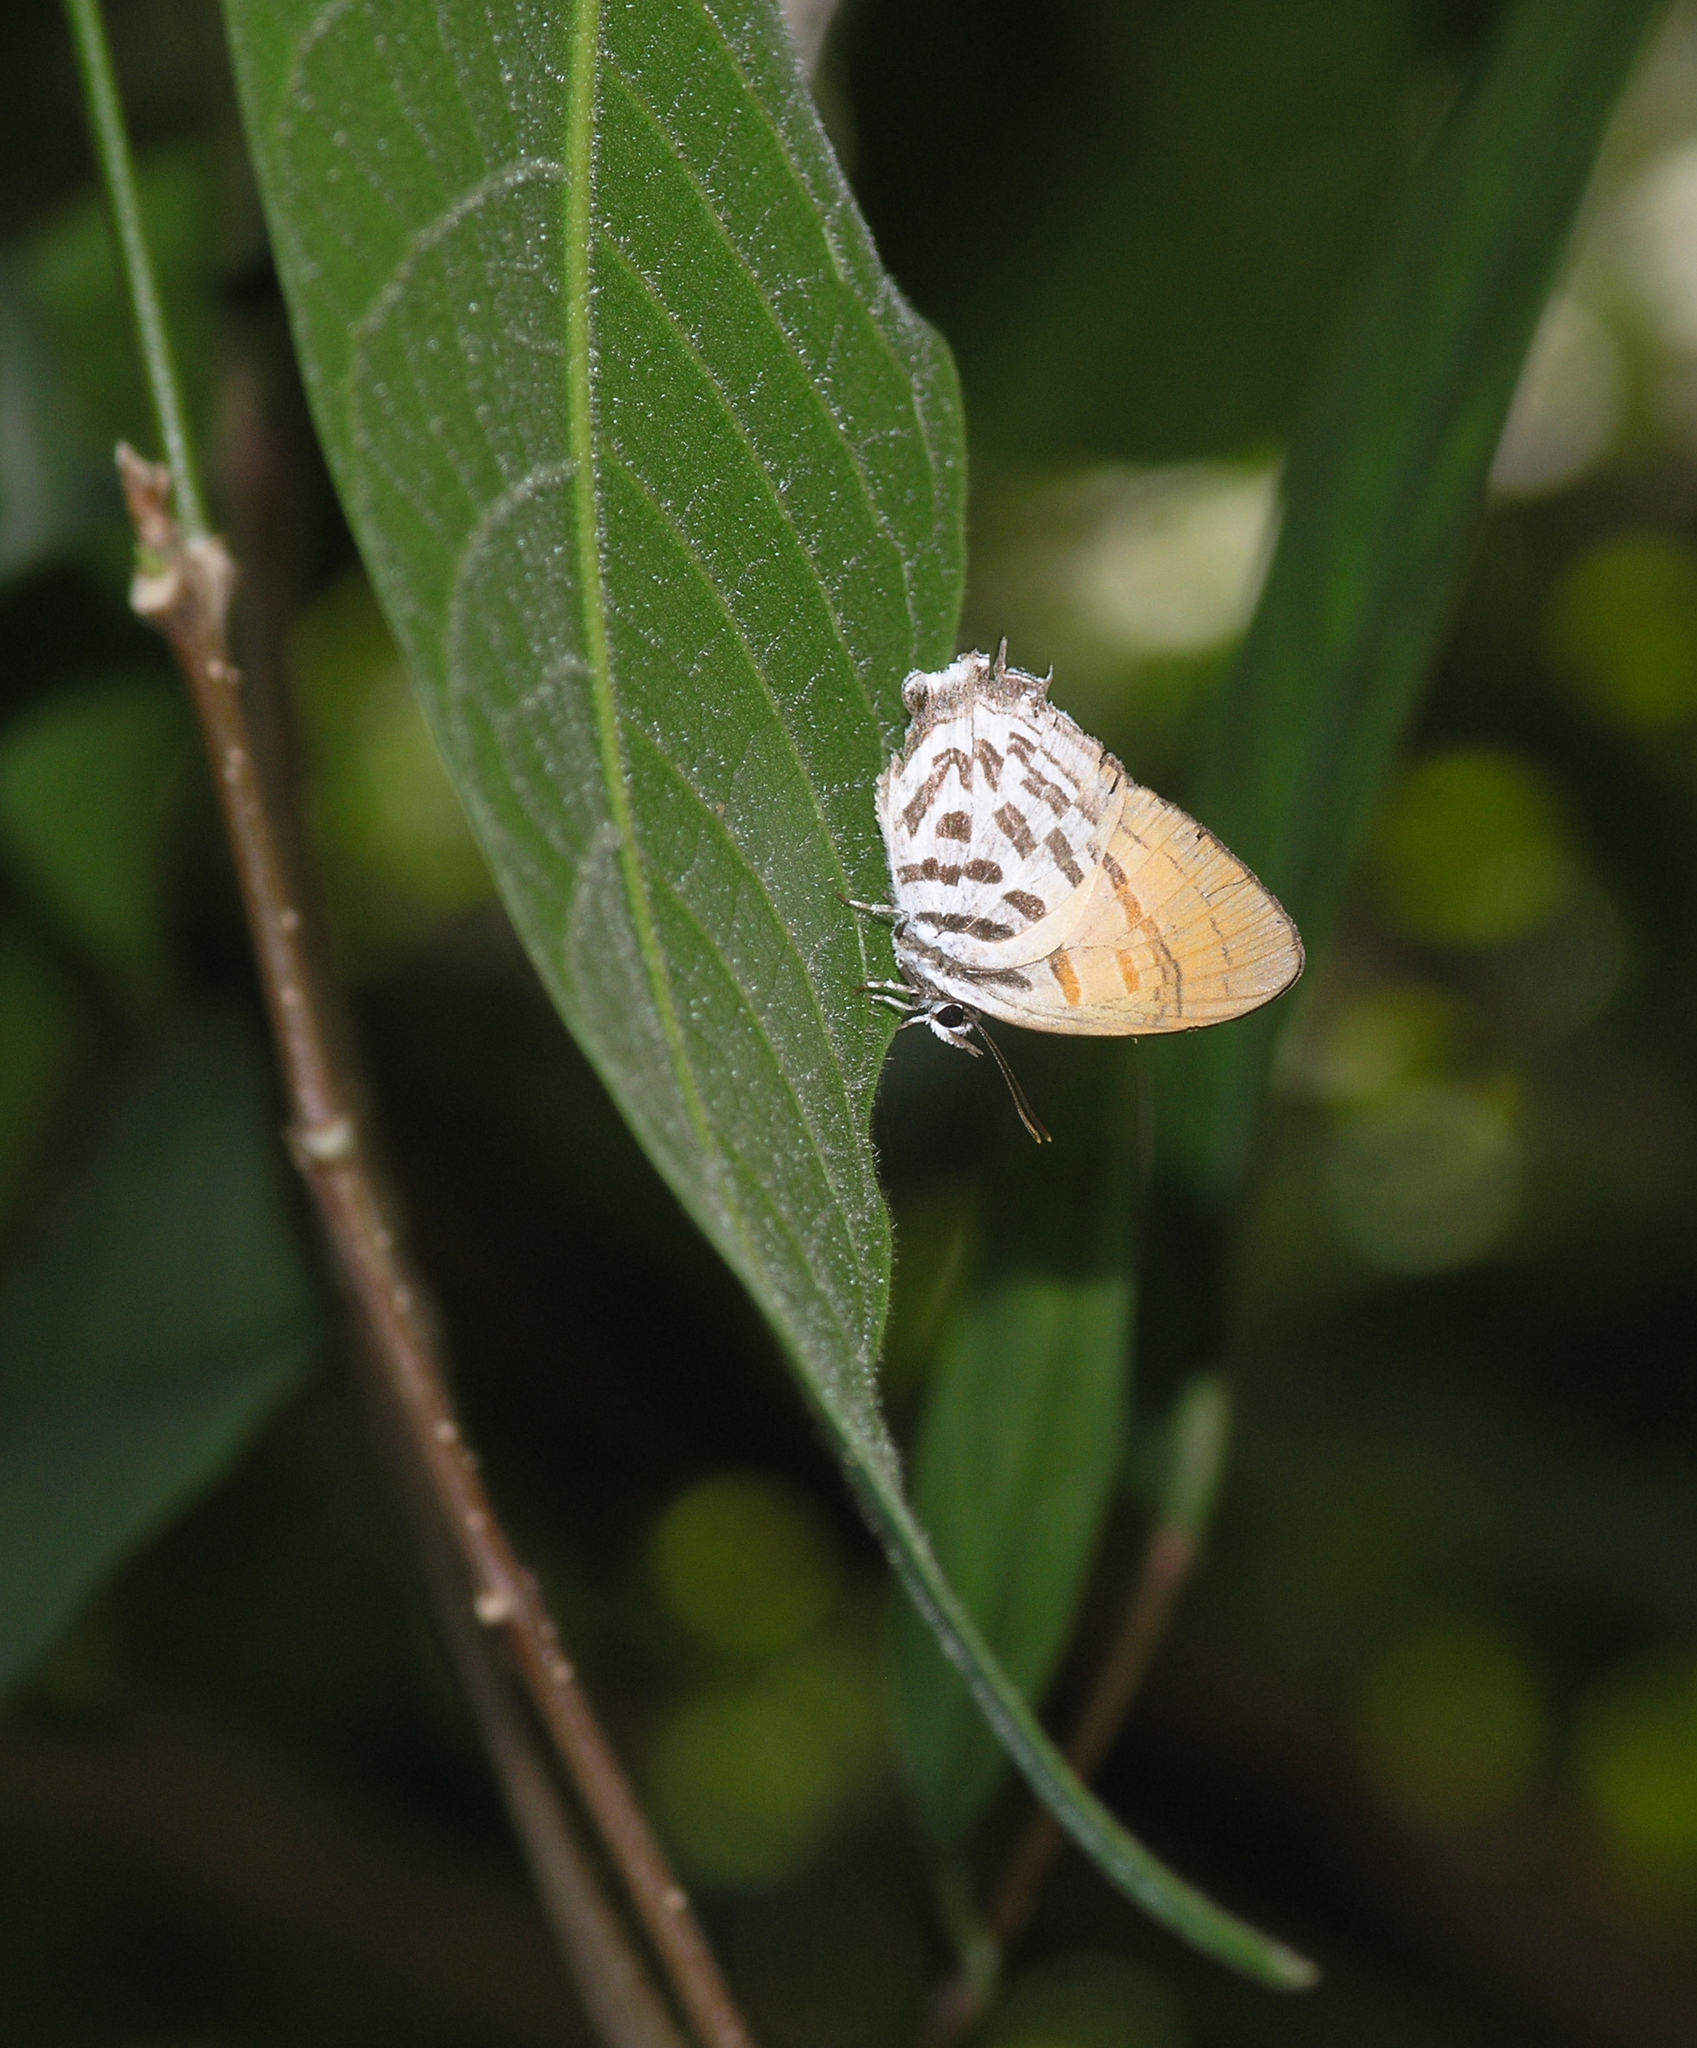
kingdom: Animalia
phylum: Arthropoda
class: Insecta
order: Lepidoptera
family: Lycaenidae
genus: Drupadia
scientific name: Drupadia ravindra
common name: Common posy
